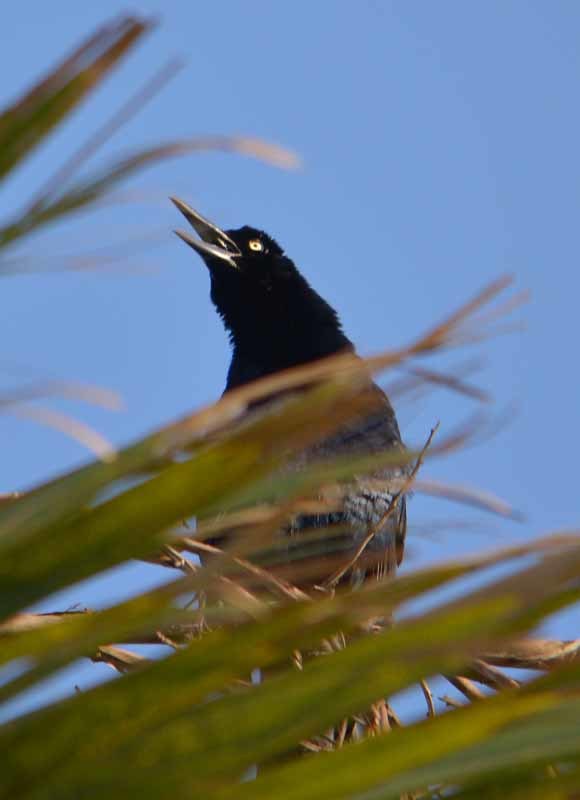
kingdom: Animalia
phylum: Chordata
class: Aves
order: Passeriformes
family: Icteridae
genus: Quiscalus
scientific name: Quiscalus mexicanus
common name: Great-tailed grackle
